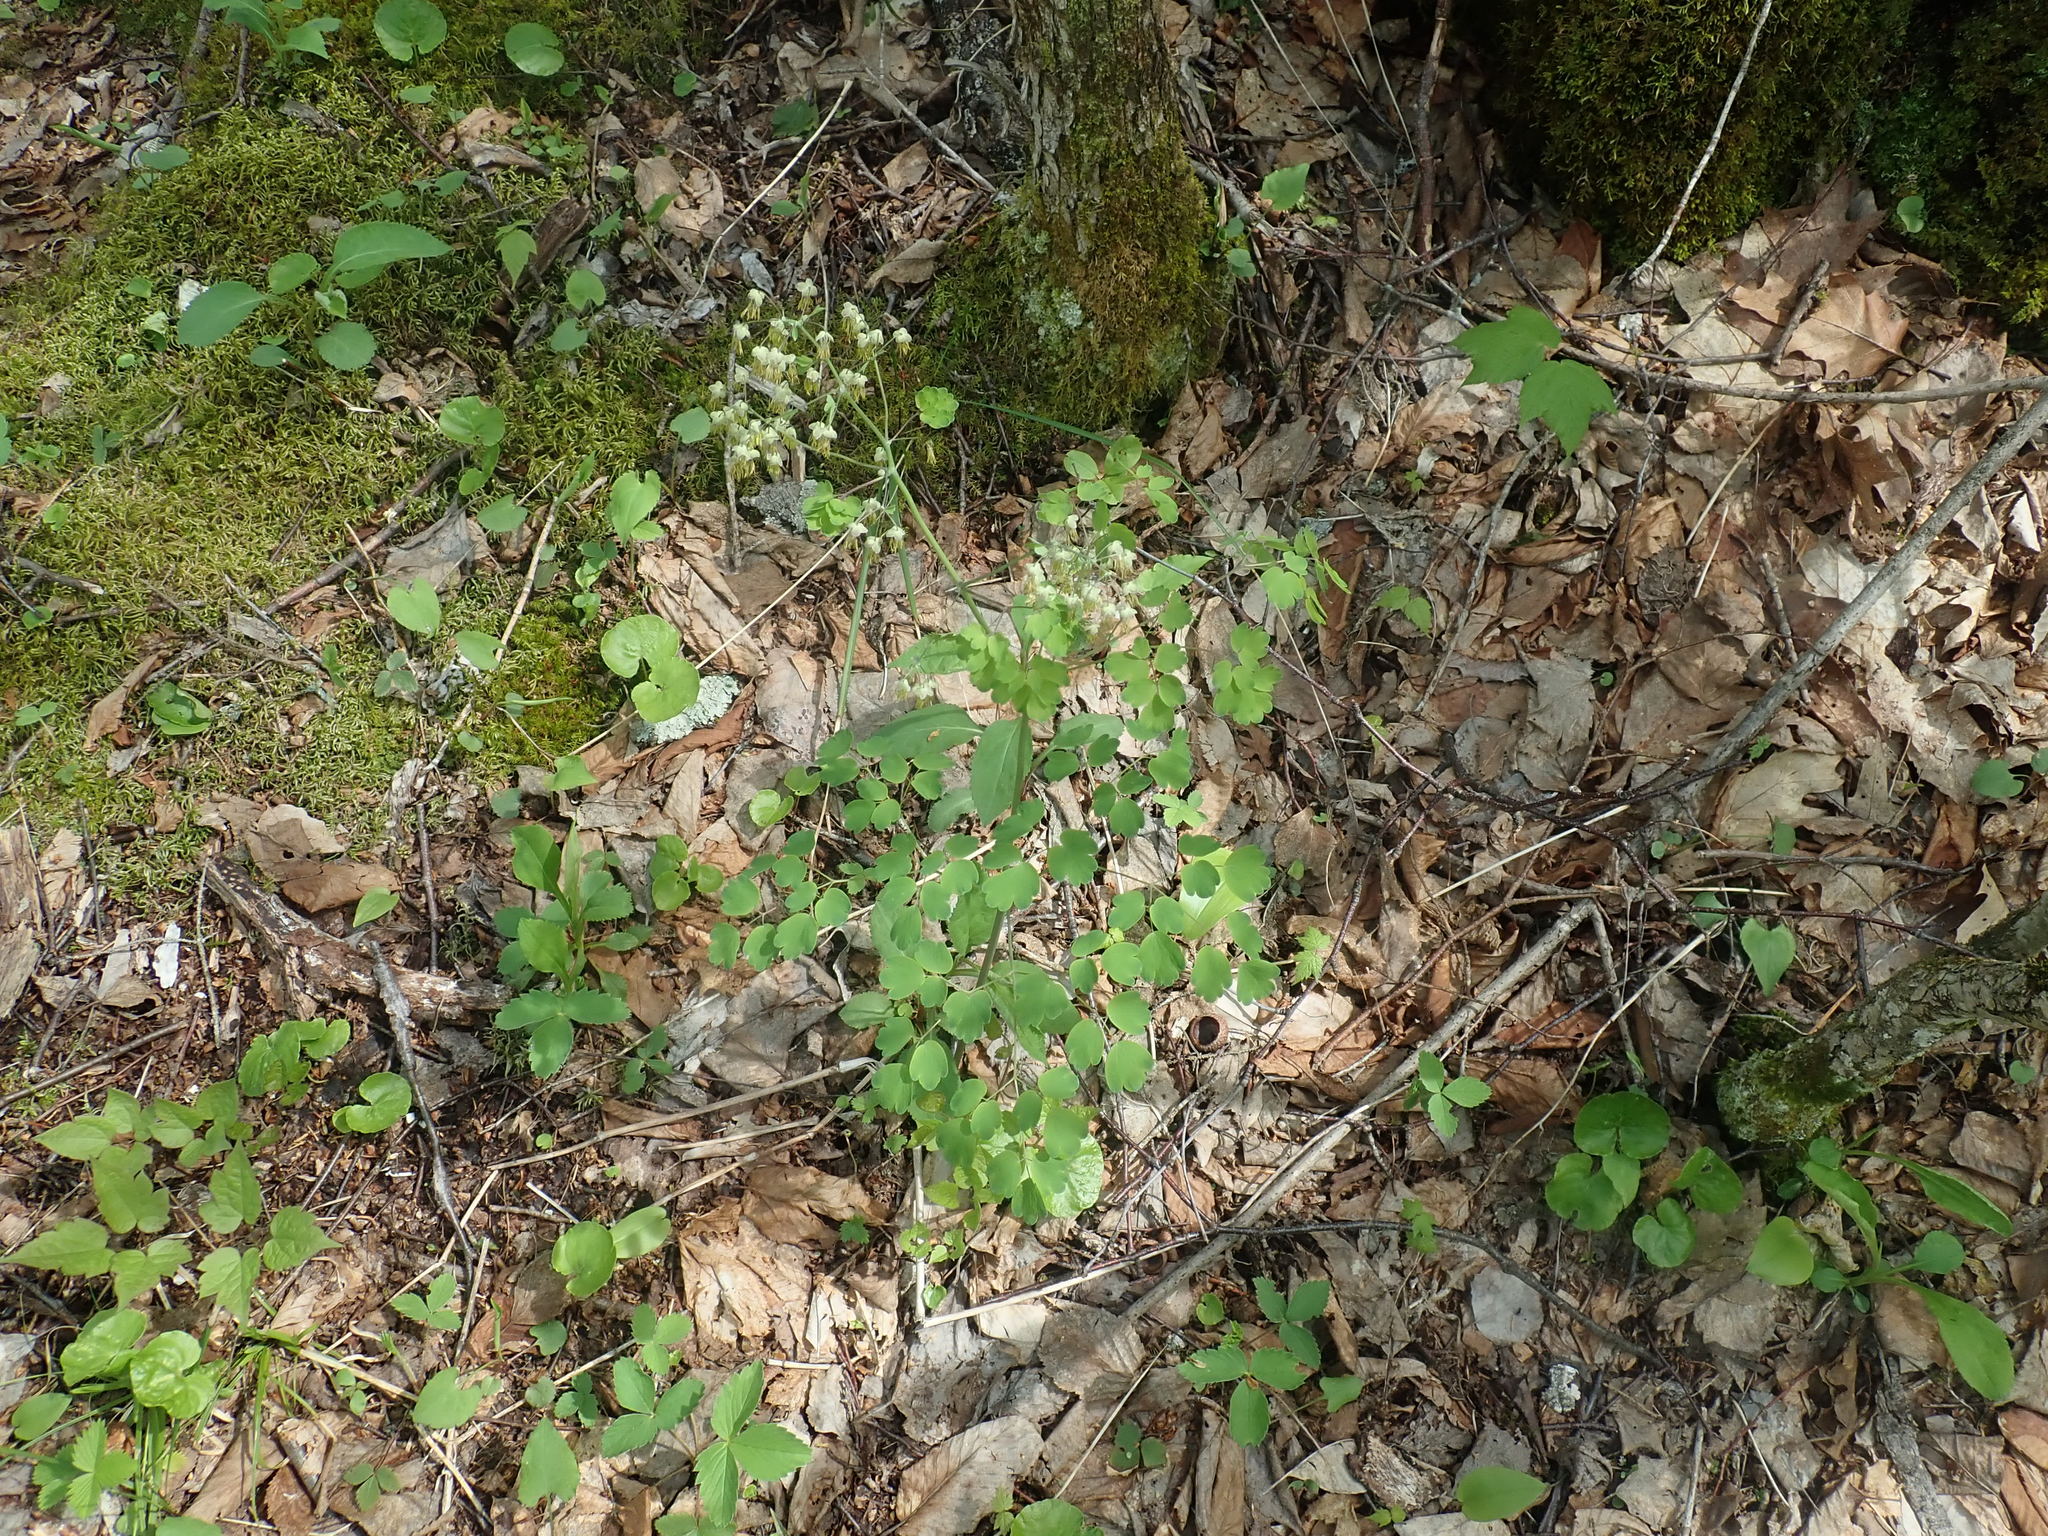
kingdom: Plantae
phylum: Tracheophyta
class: Magnoliopsida
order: Ranunculales
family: Ranunculaceae
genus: Thalictrum
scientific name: Thalictrum dioicum
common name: Early meadow-rue
